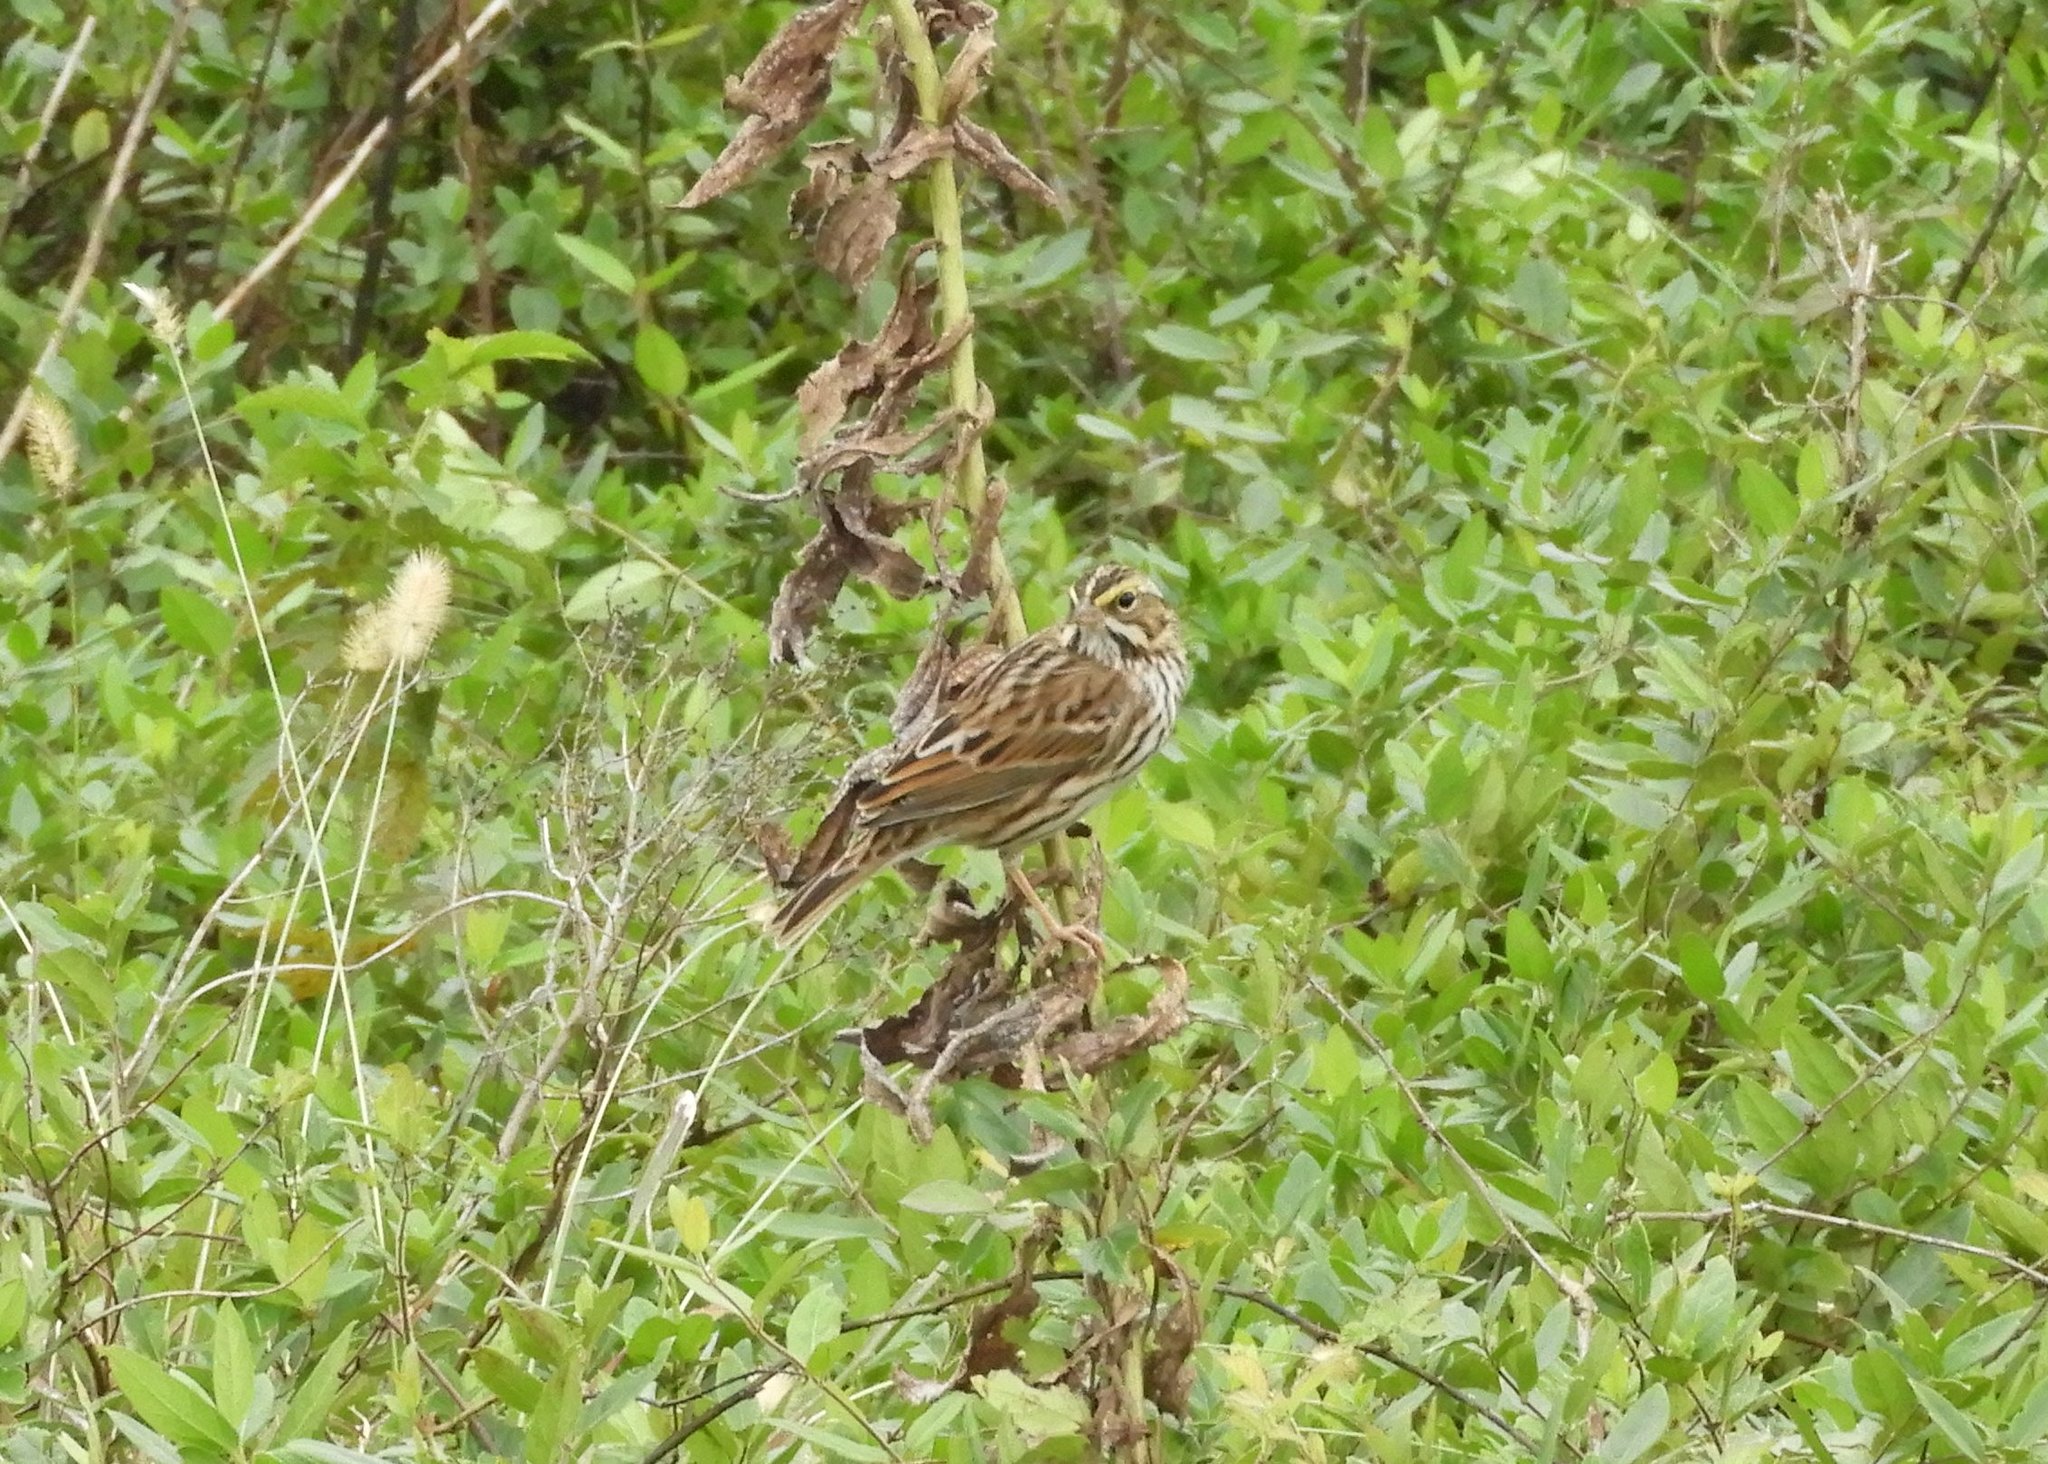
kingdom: Animalia
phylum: Chordata
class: Aves
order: Passeriformes
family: Passerellidae
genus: Passerculus
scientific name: Passerculus sandwichensis
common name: Savannah sparrow
